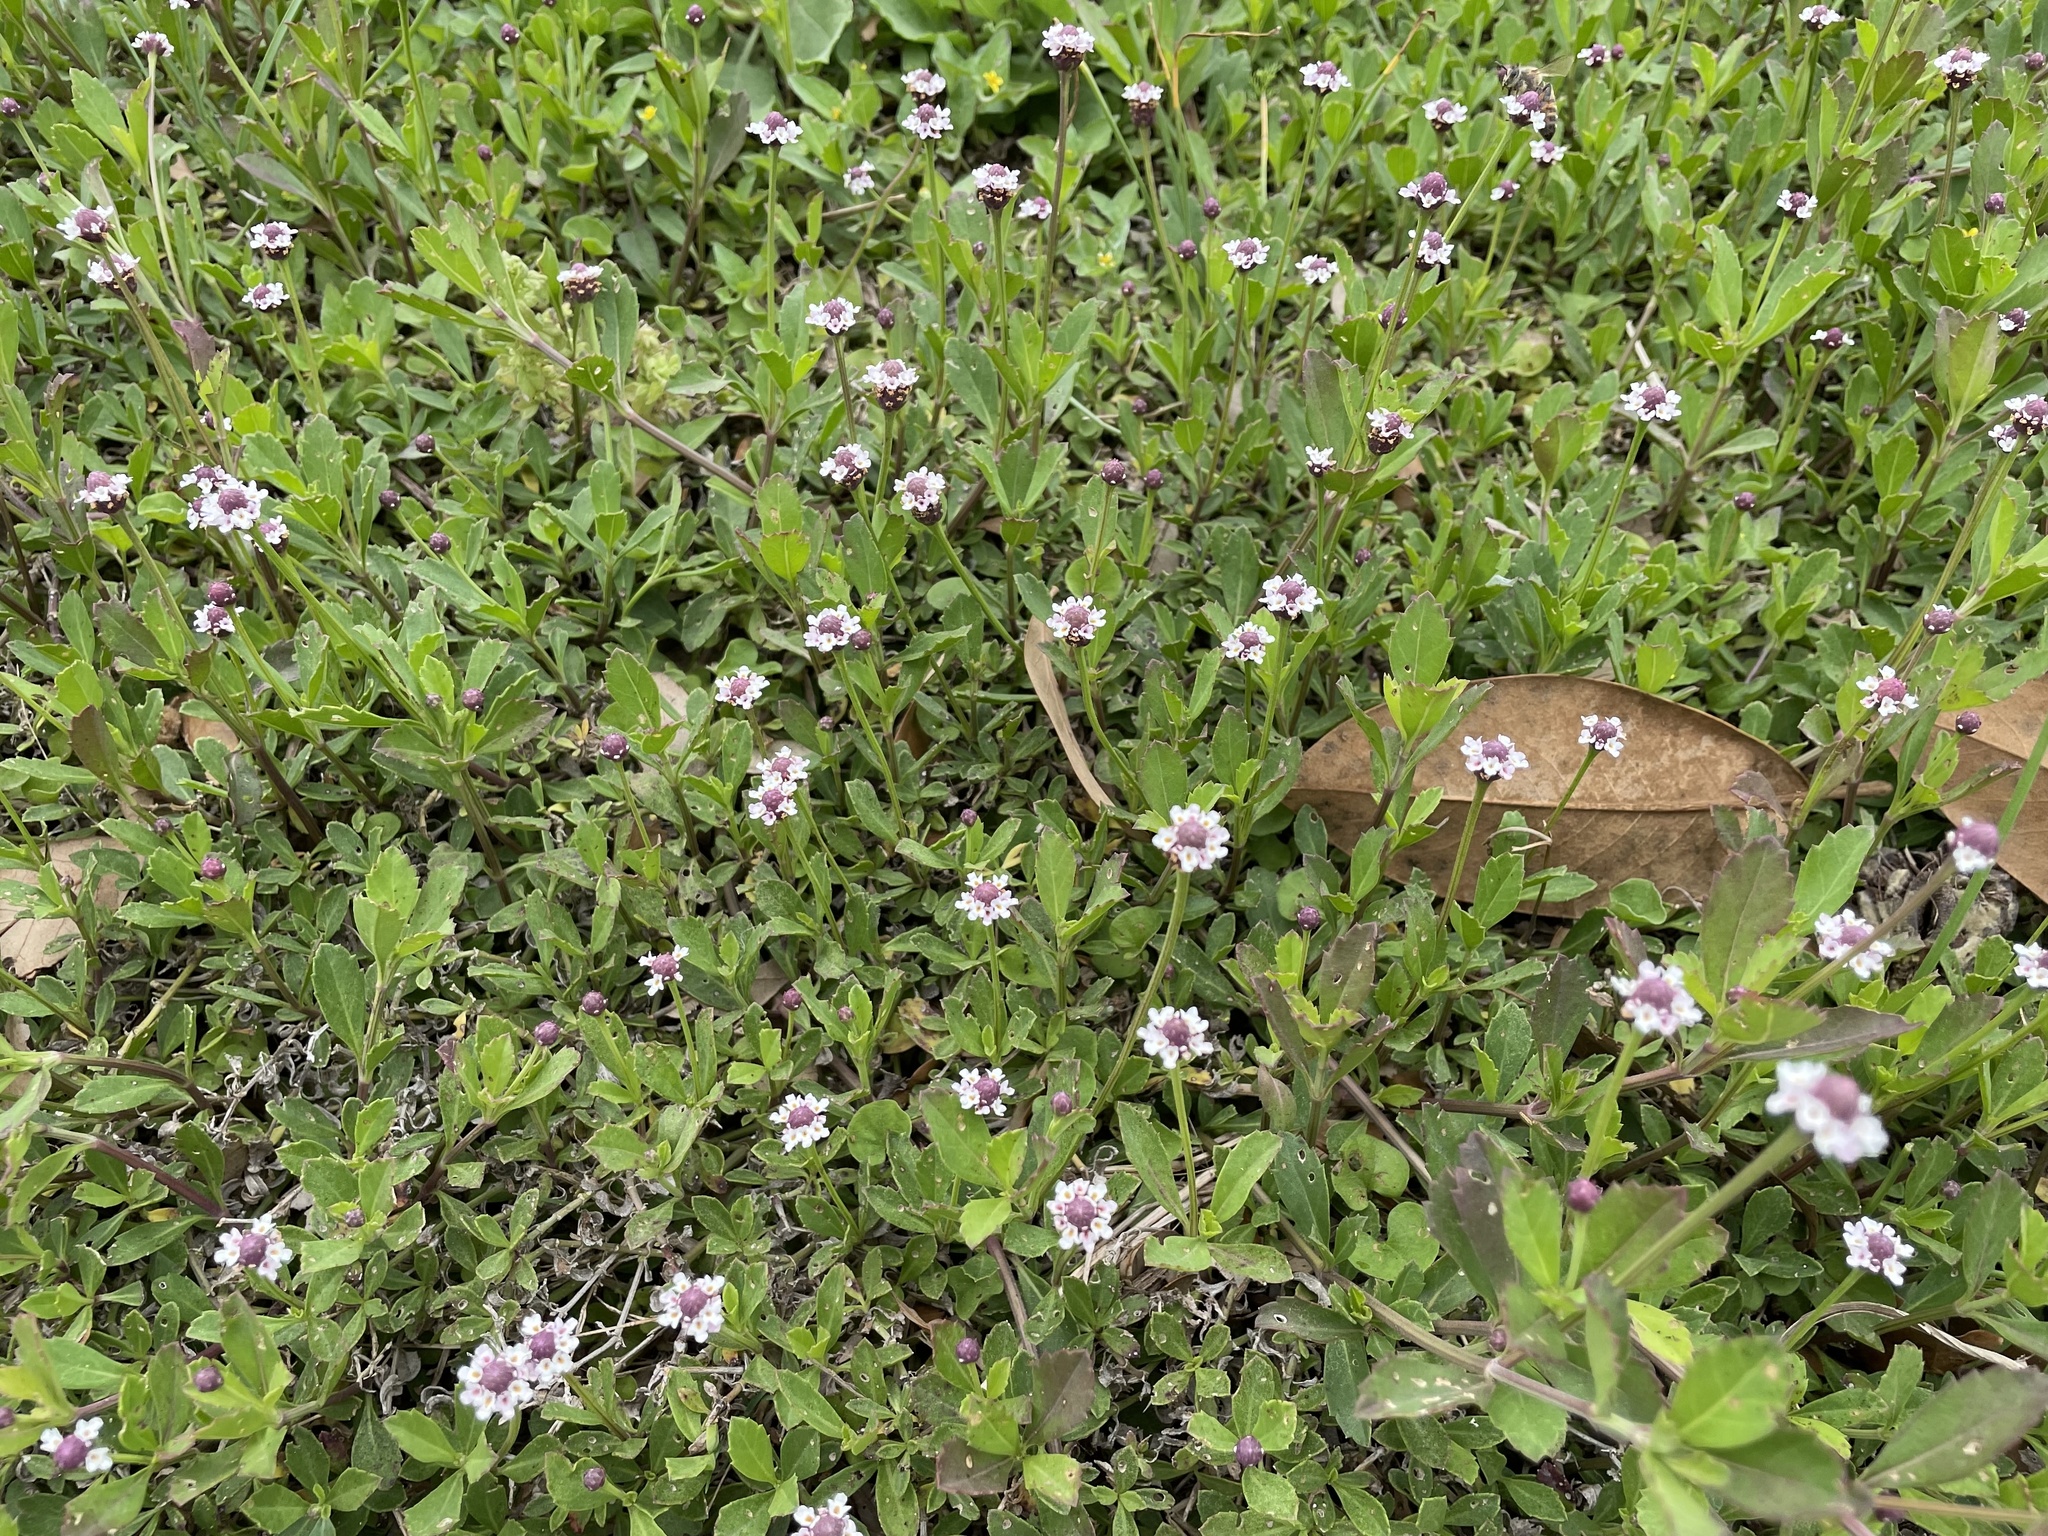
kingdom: Plantae
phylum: Tracheophyta
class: Magnoliopsida
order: Lamiales
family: Verbenaceae
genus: Phyla
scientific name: Phyla nodiflora
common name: Frogfruit
